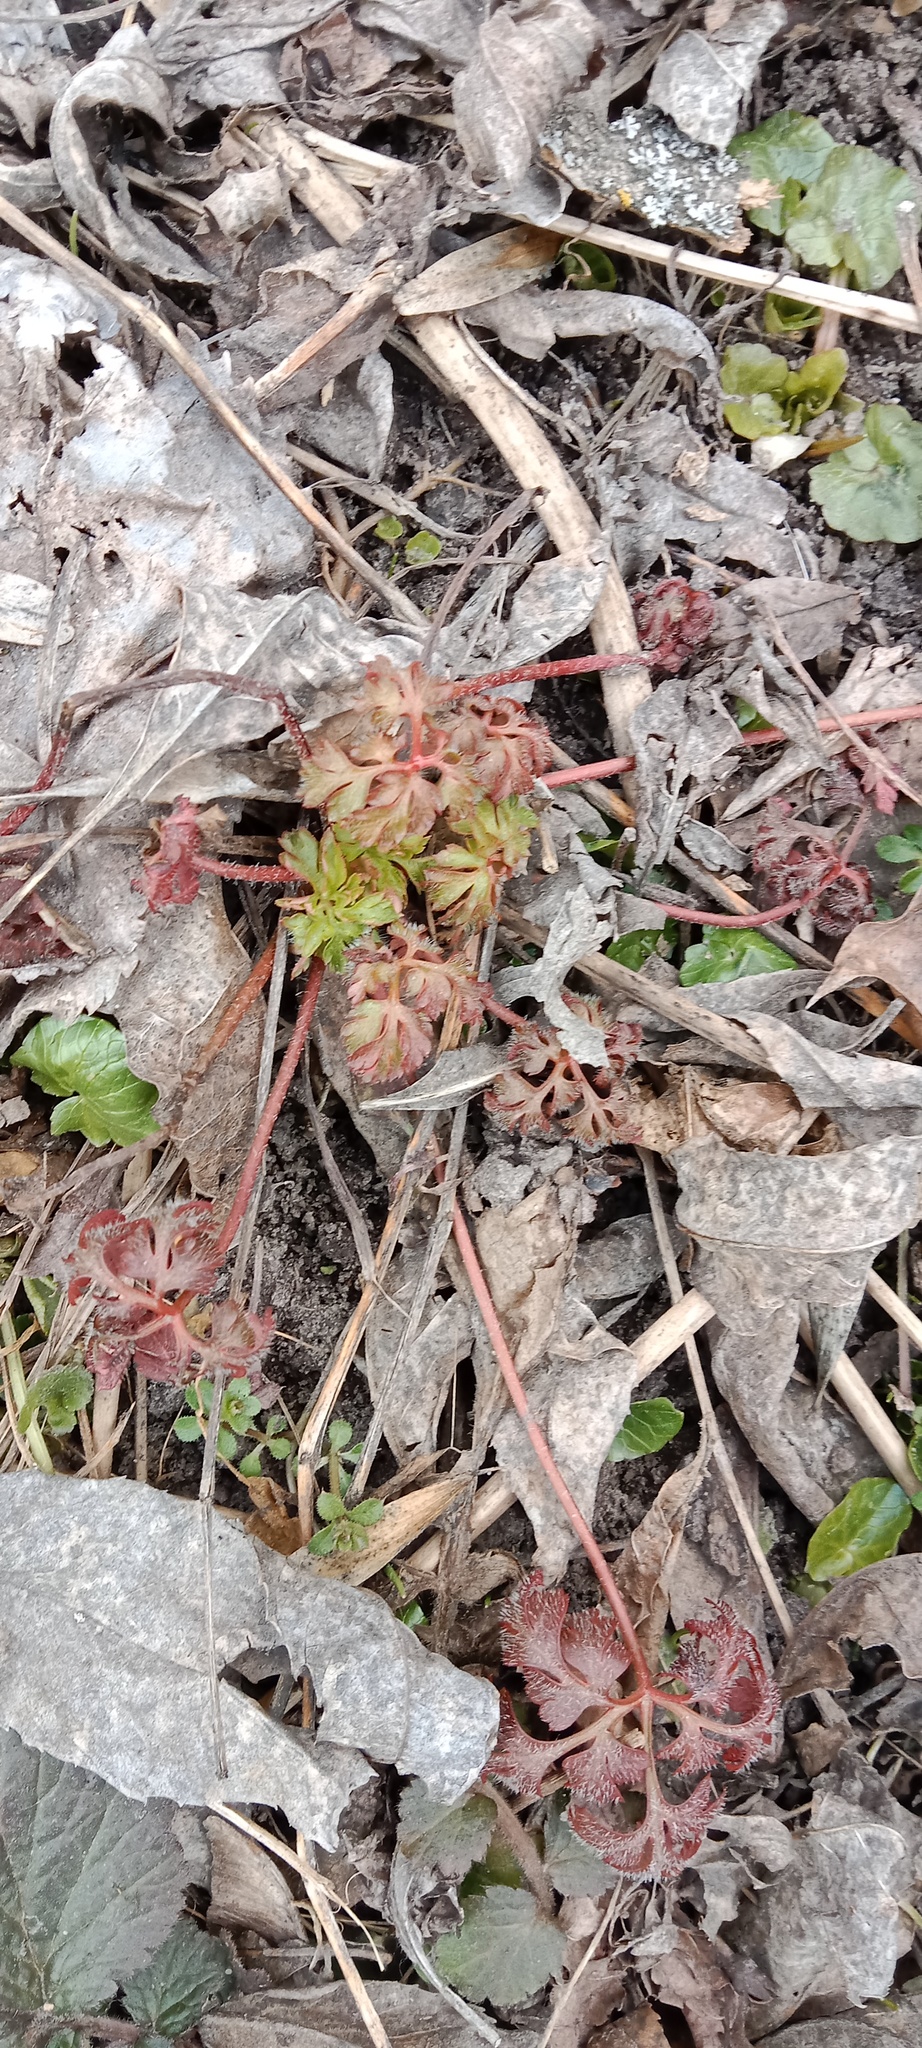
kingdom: Plantae
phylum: Tracheophyta
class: Magnoliopsida
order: Geraniales
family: Geraniaceae
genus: Geranium
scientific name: Geranium robertianum
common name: Herb-robert
